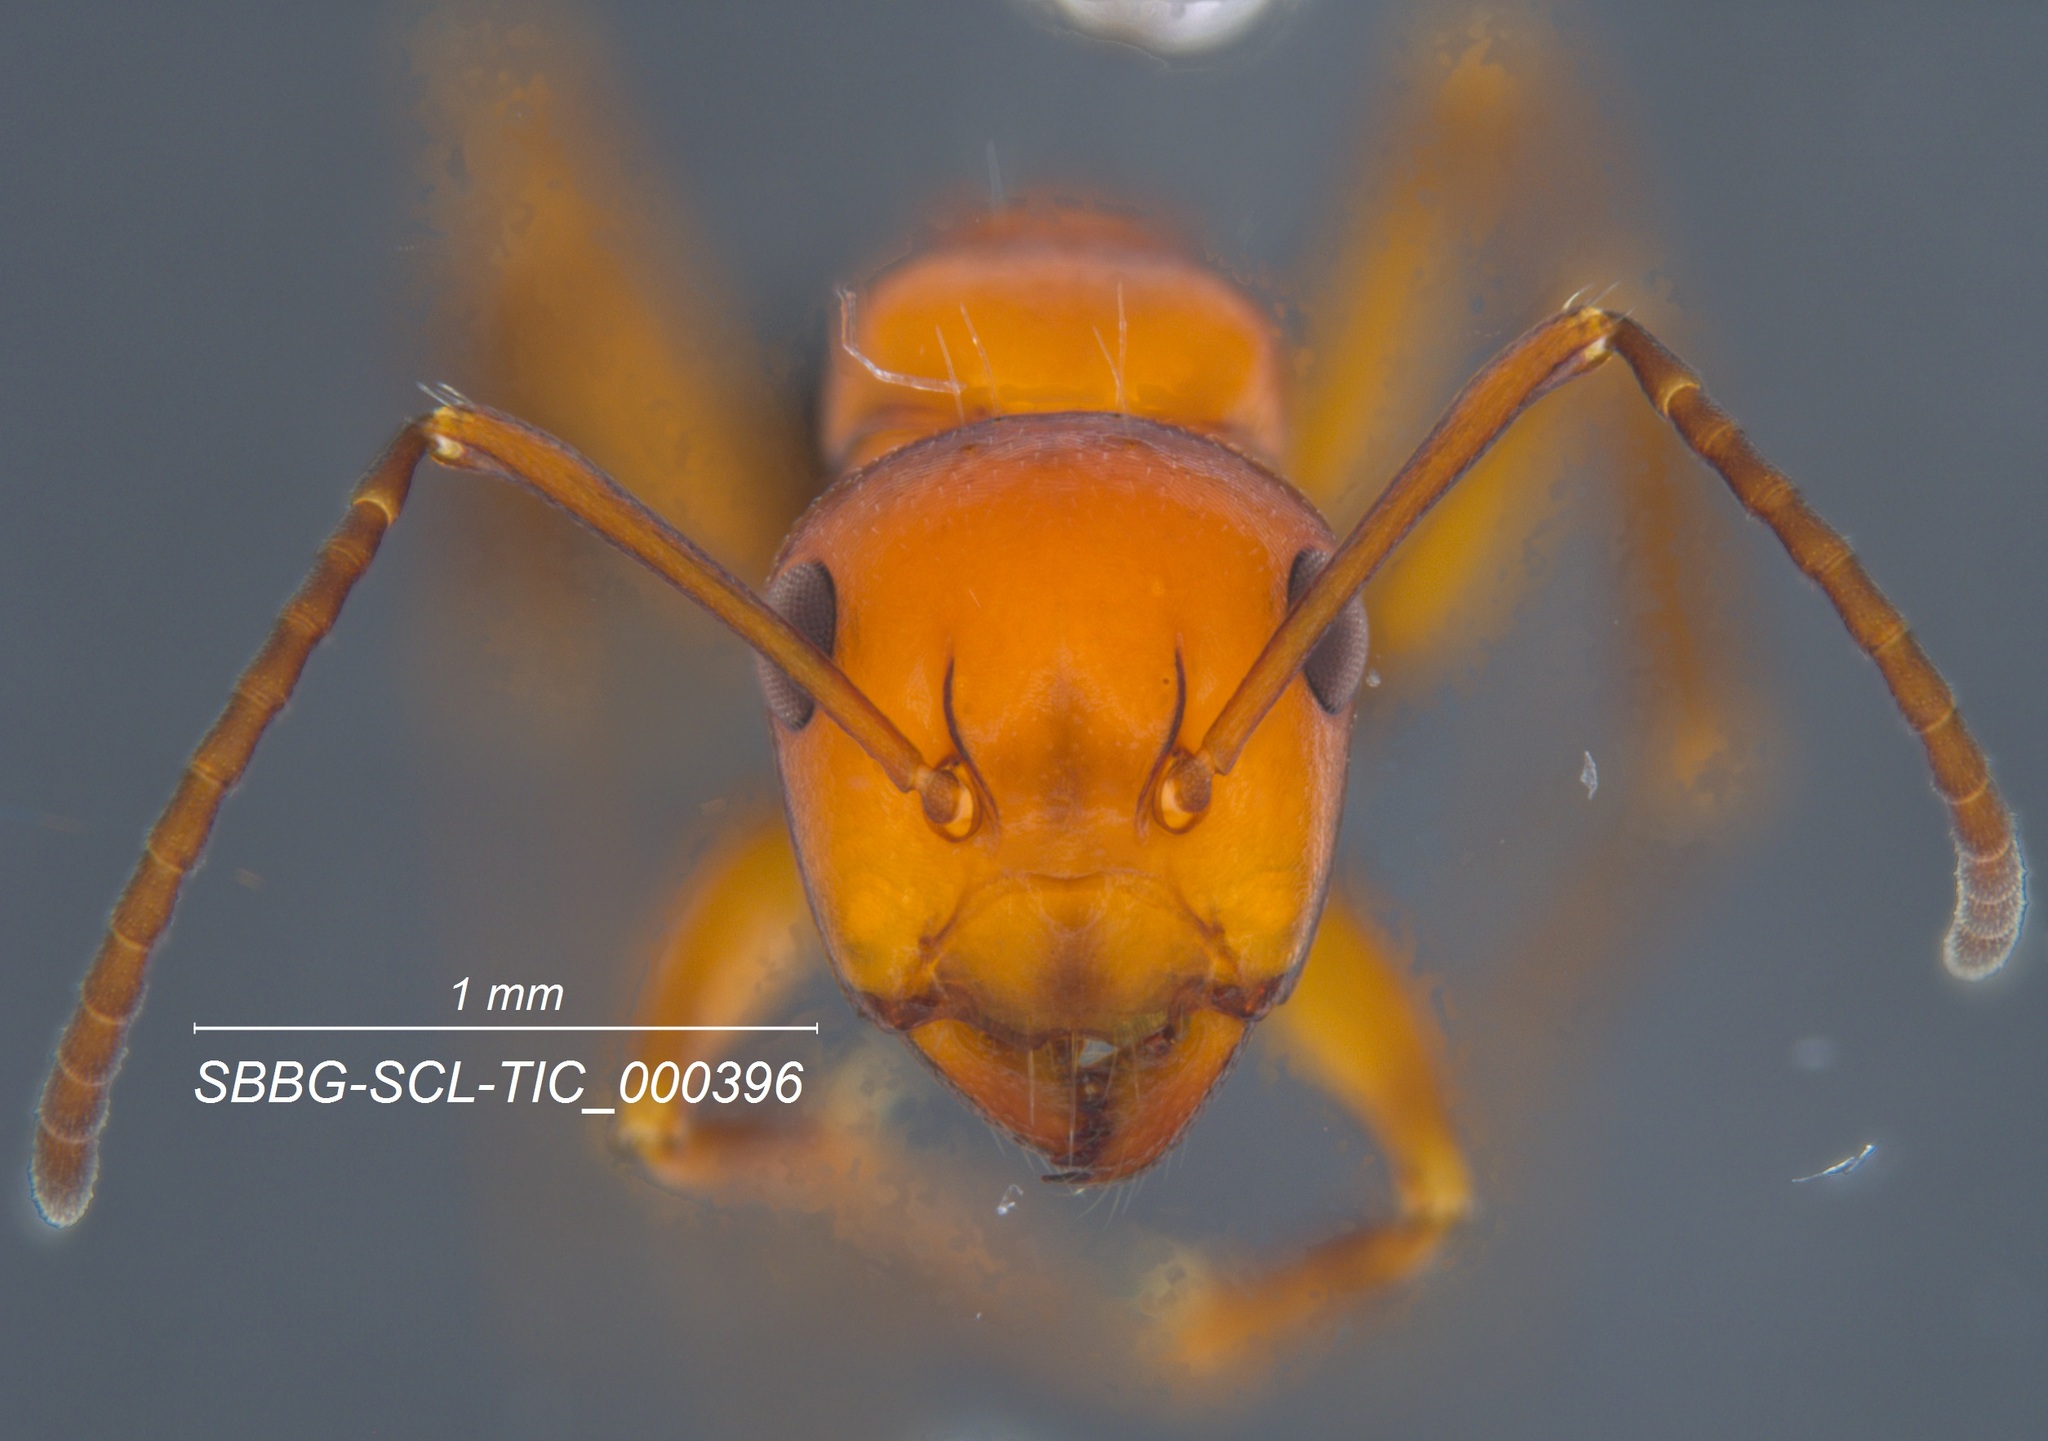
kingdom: Animalia
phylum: Arthropoda
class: Insecta
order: Hymenoptera
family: Formicidae
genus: Camponotus
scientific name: Camponotus bakeri
